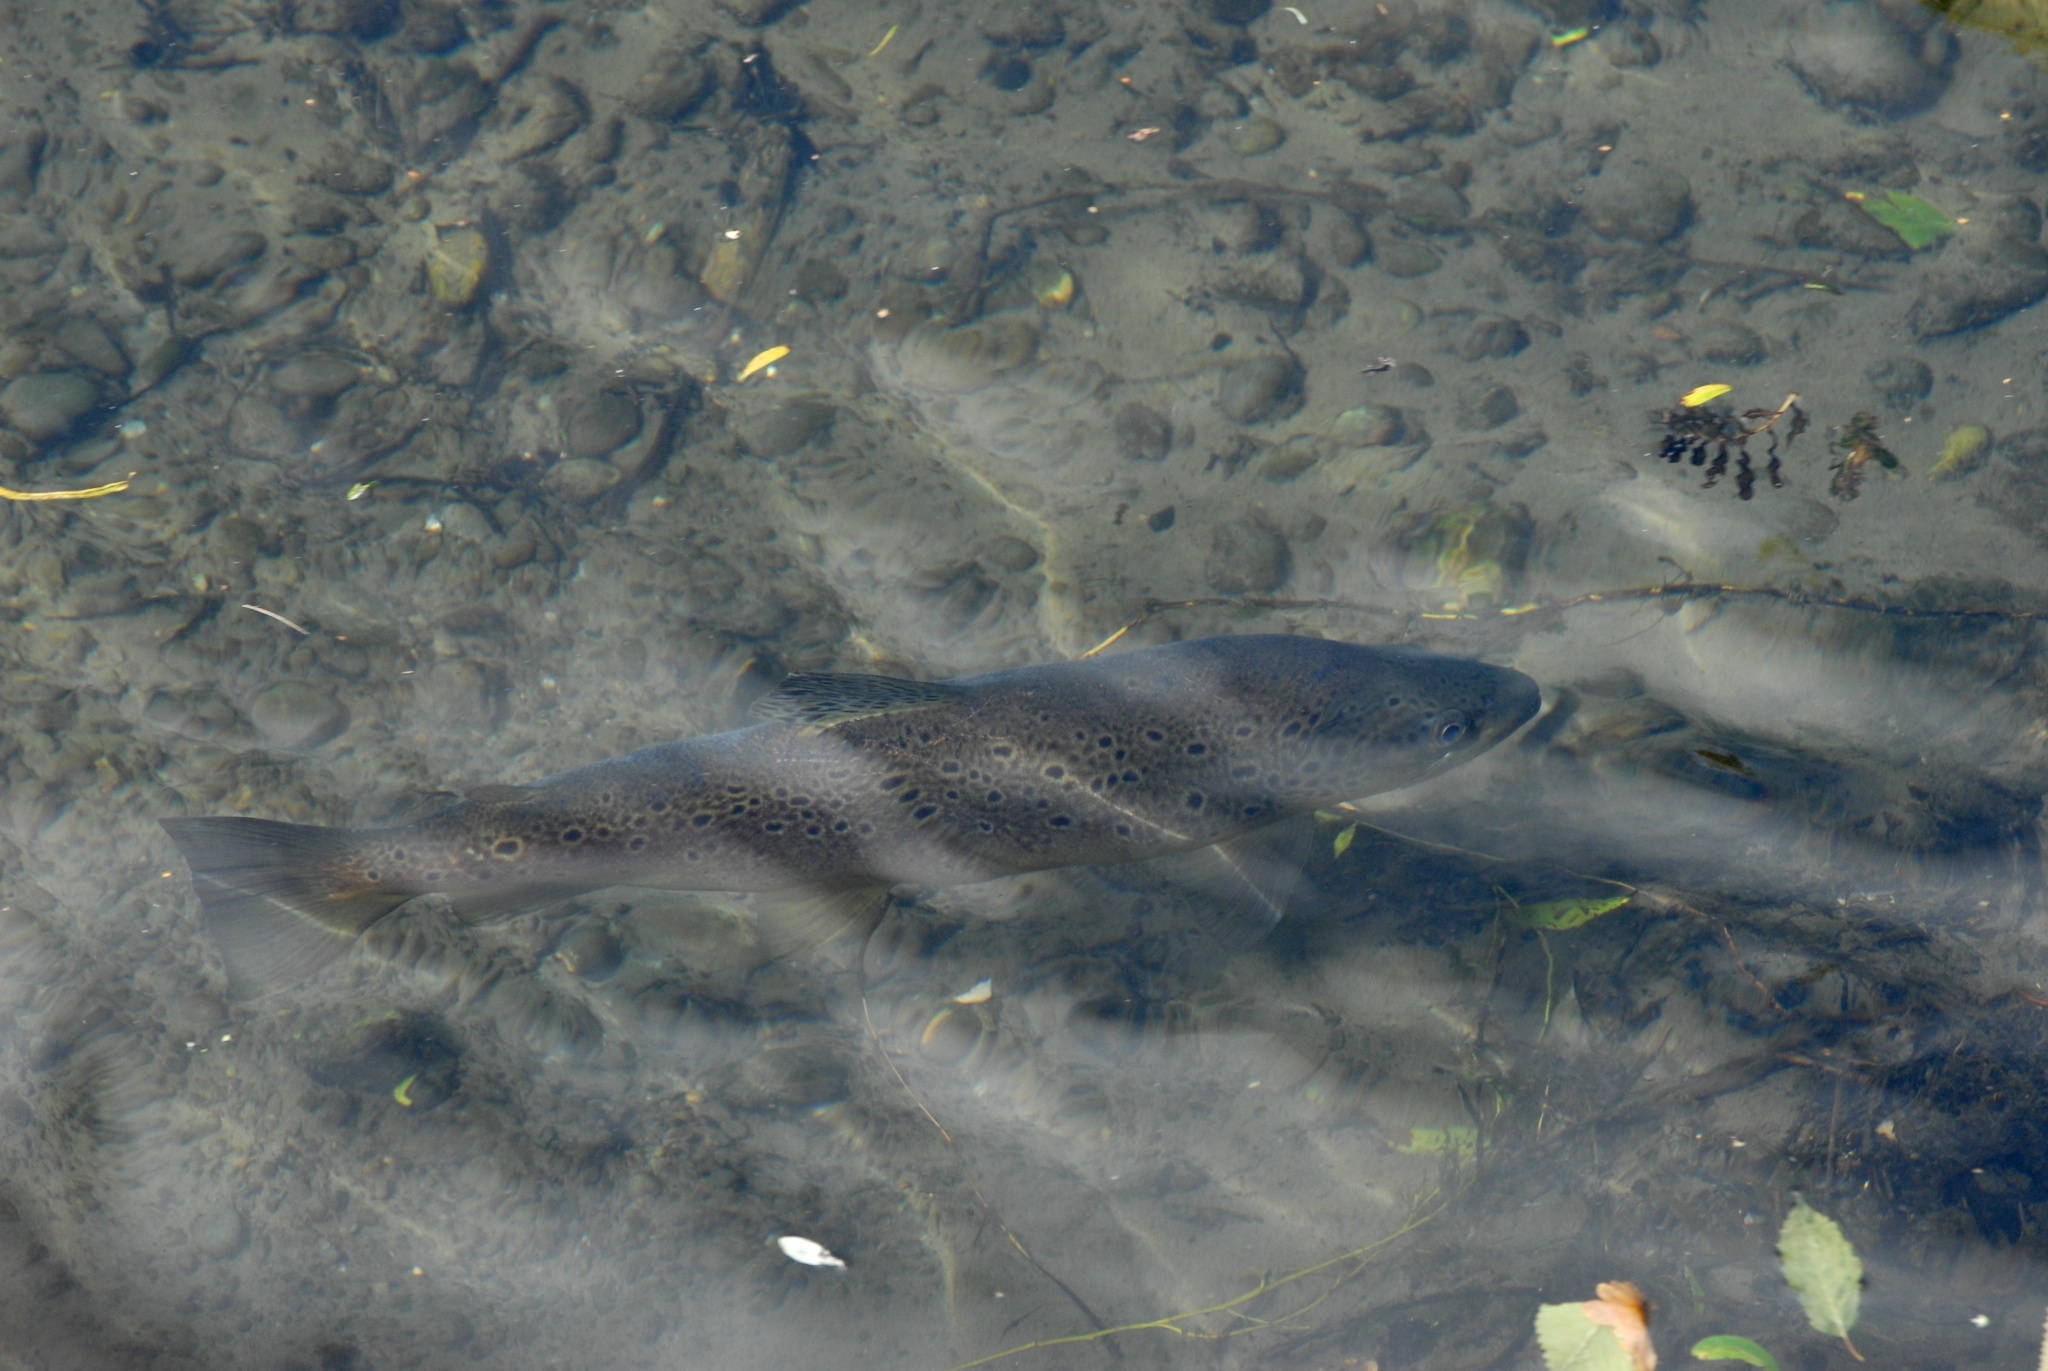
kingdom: Animalia
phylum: Chordata
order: Salmoniformes
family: Salmonidae
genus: Salmo
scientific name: Salmo trutta
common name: Brown trout
